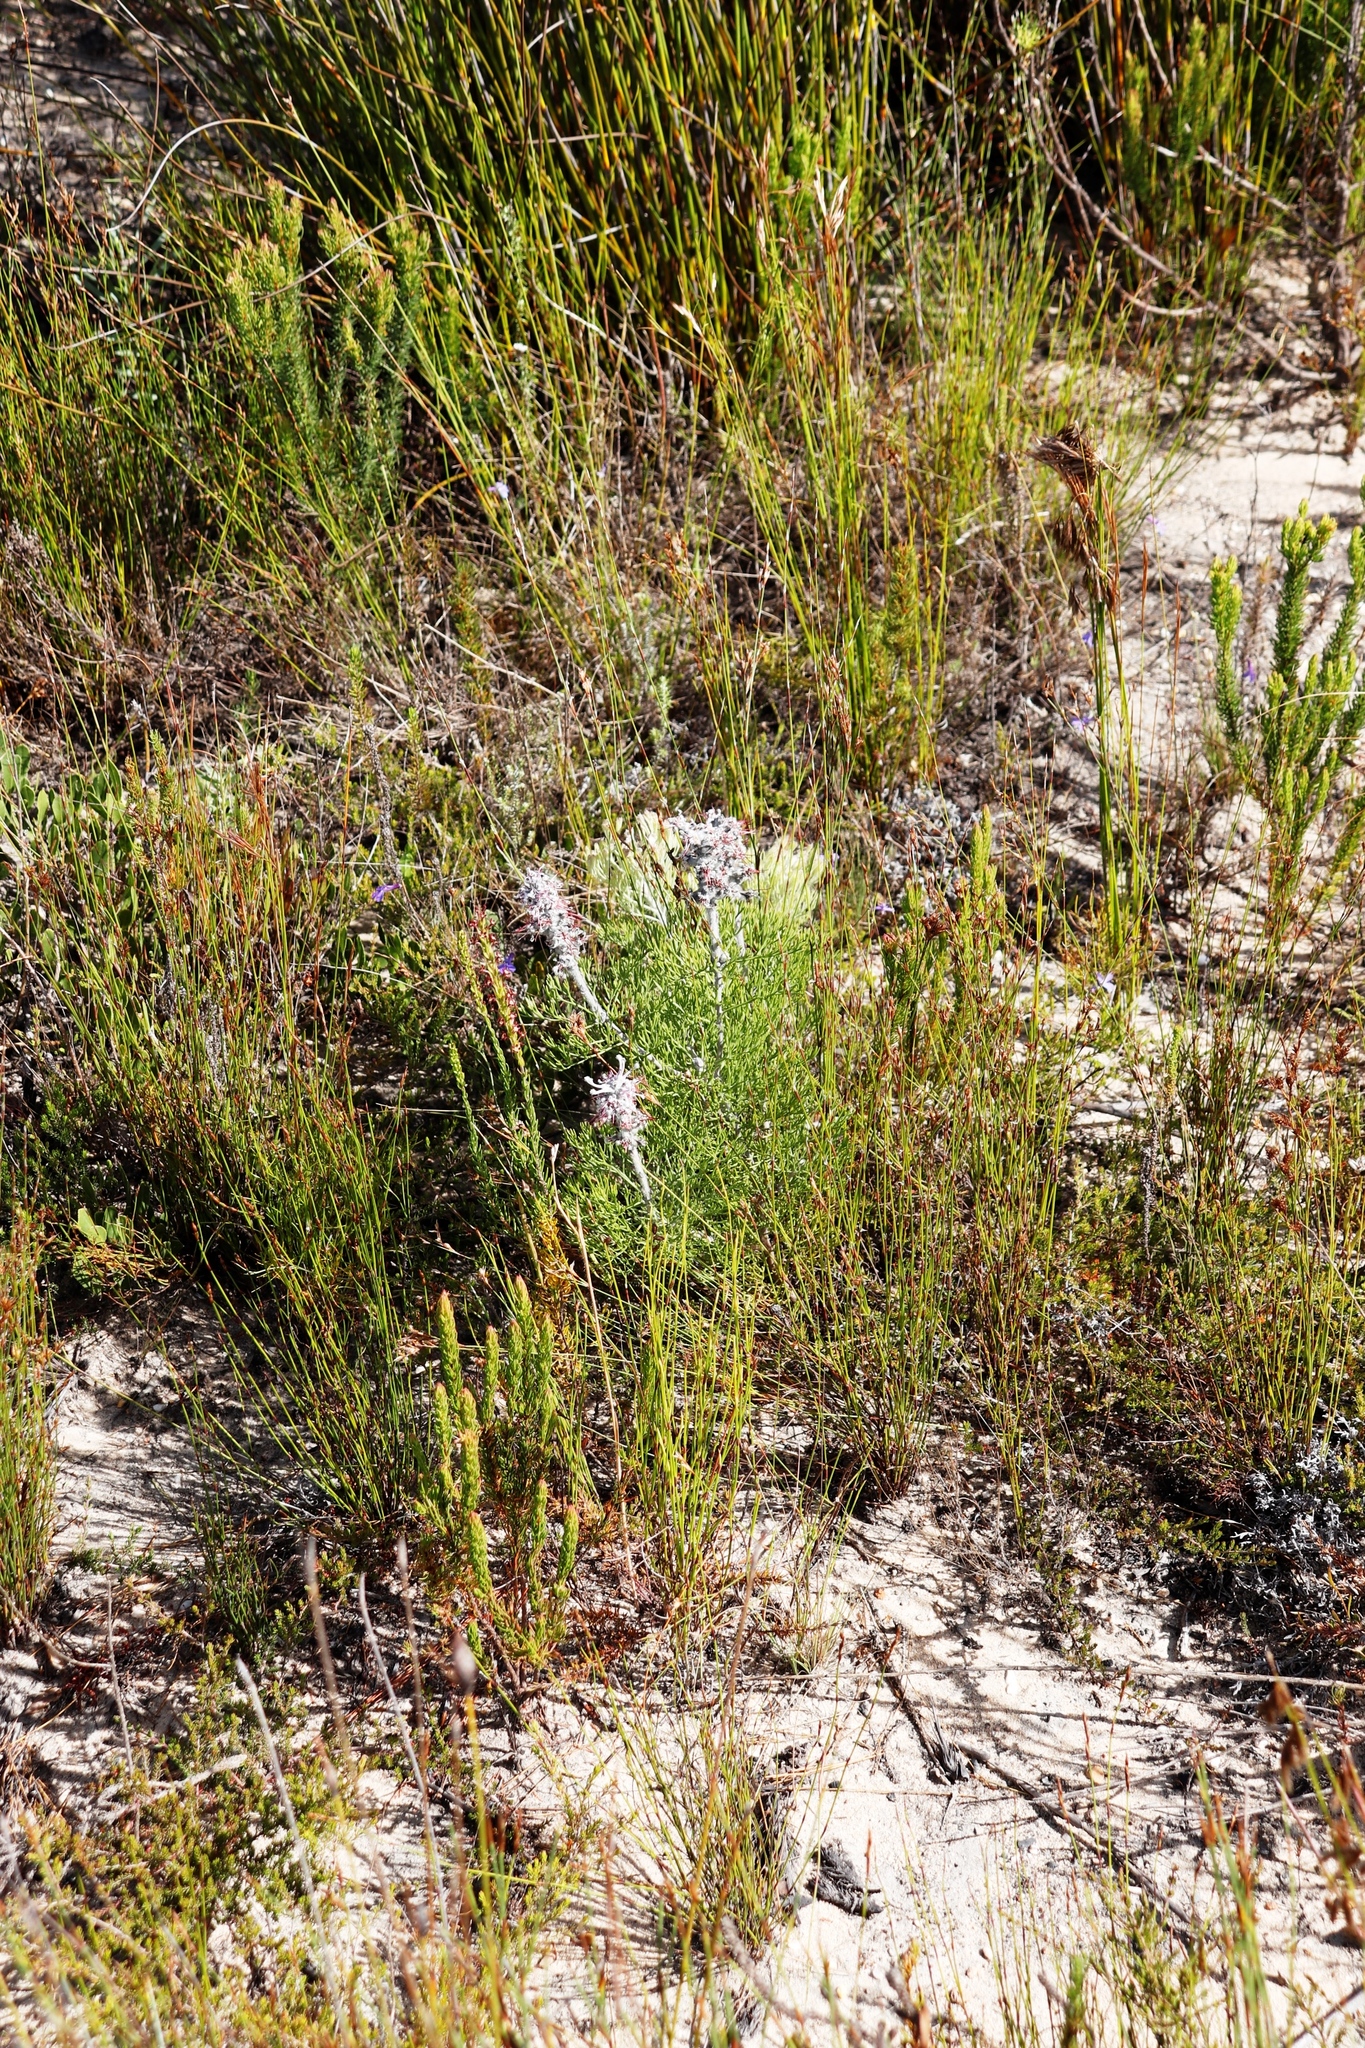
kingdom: Plantae
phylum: Tracheophyta
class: Magnoliopsida
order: Proteales
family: Proteaceae
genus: Paranomus
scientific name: Paranomus bolusii
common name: Overberg sceptre
